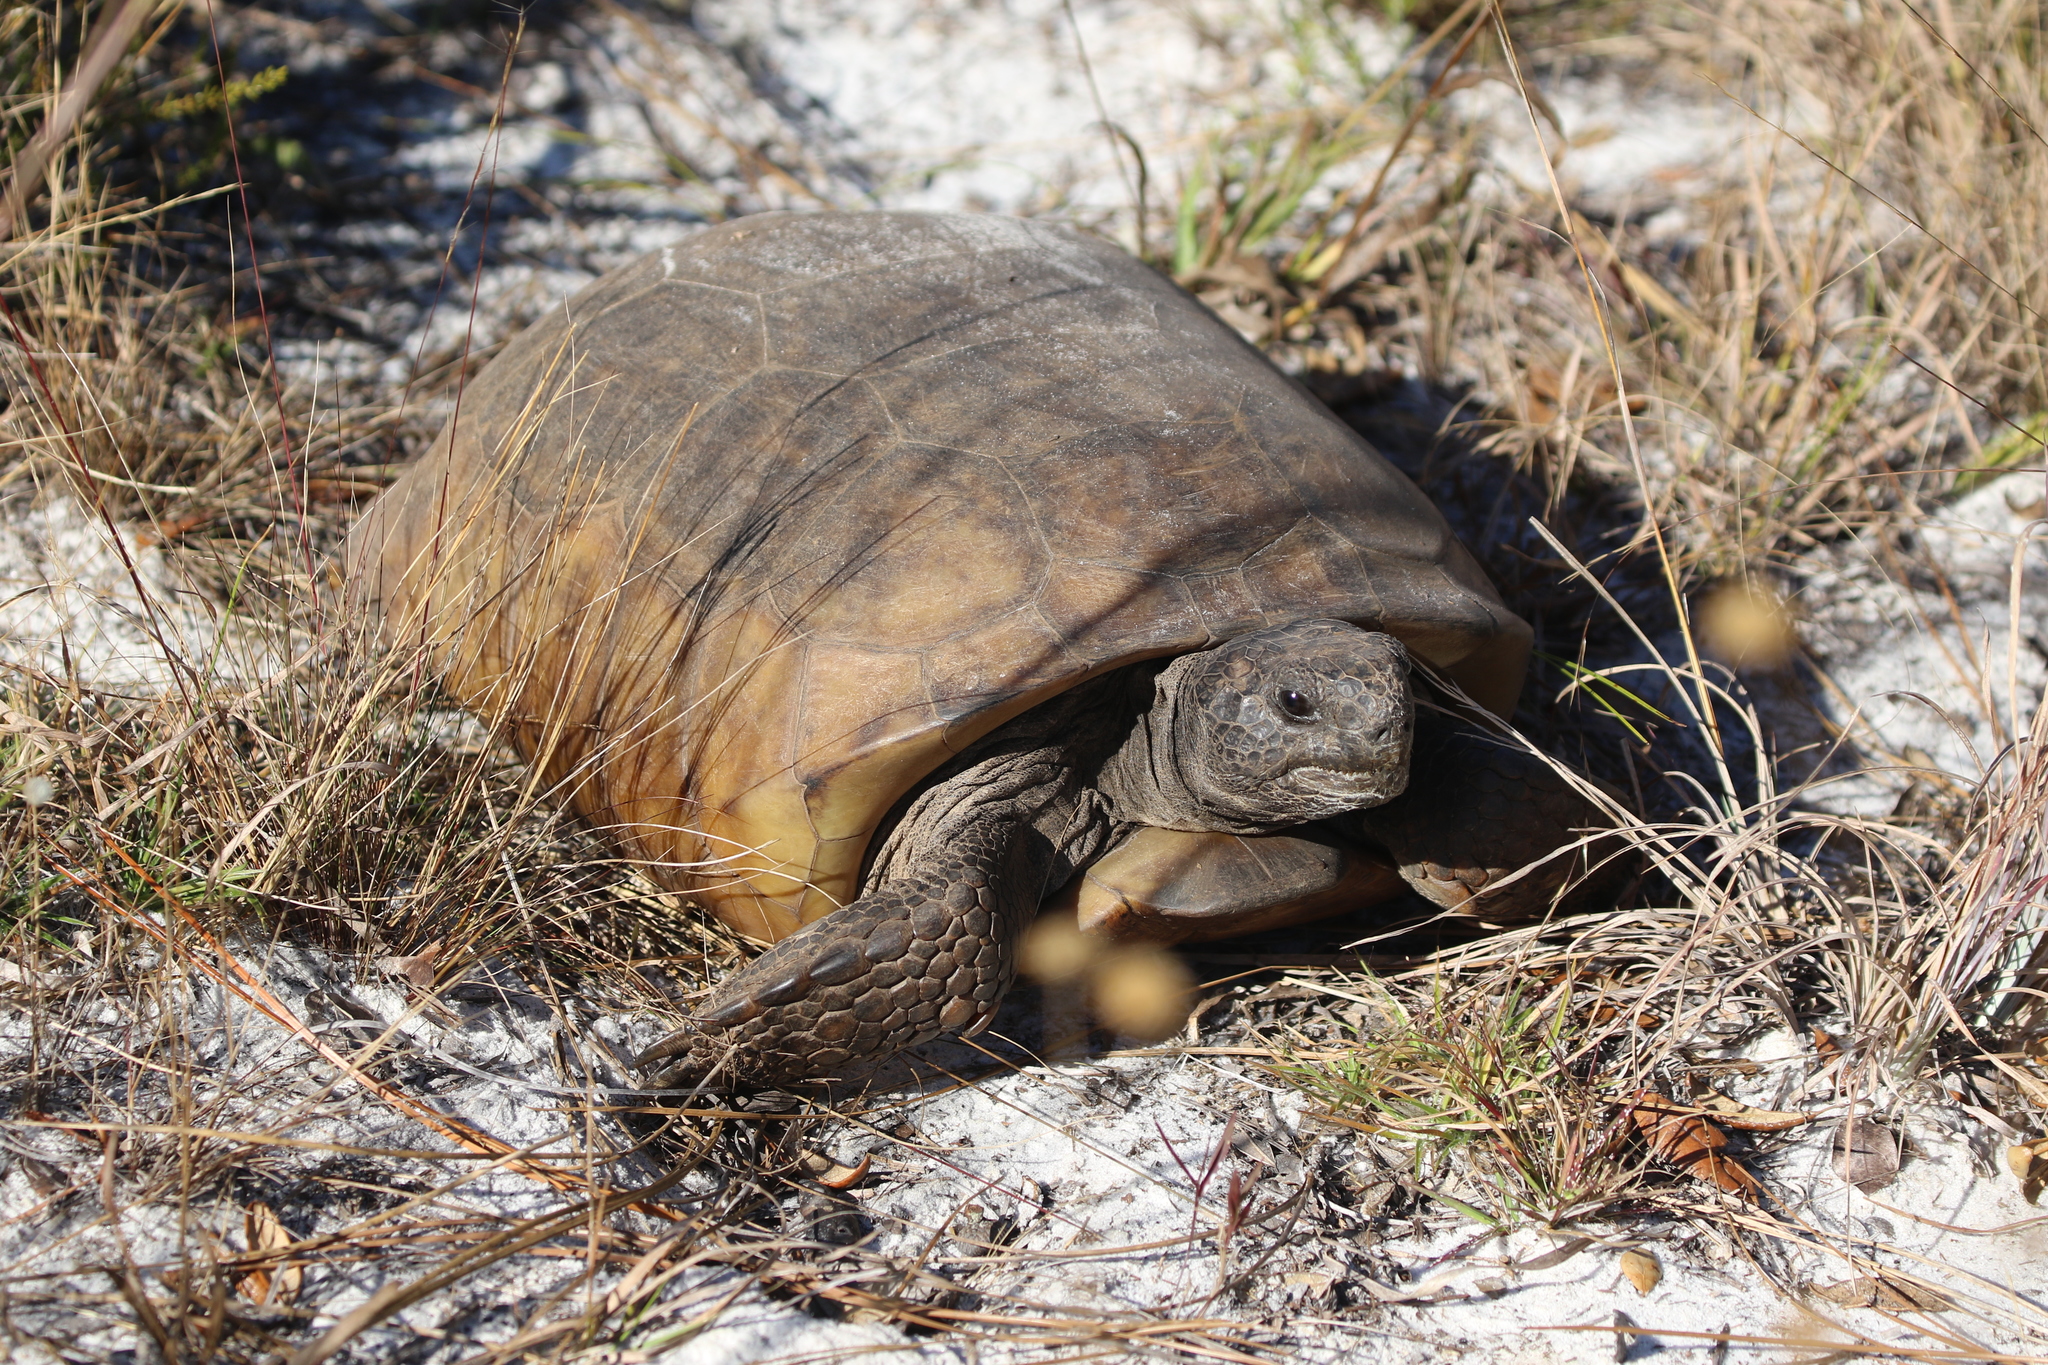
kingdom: Animalia
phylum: Chordata
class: Testudines
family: Testudinidae
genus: Gopherus
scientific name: Gopherus polyphemus
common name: Florida gopher tortoise
